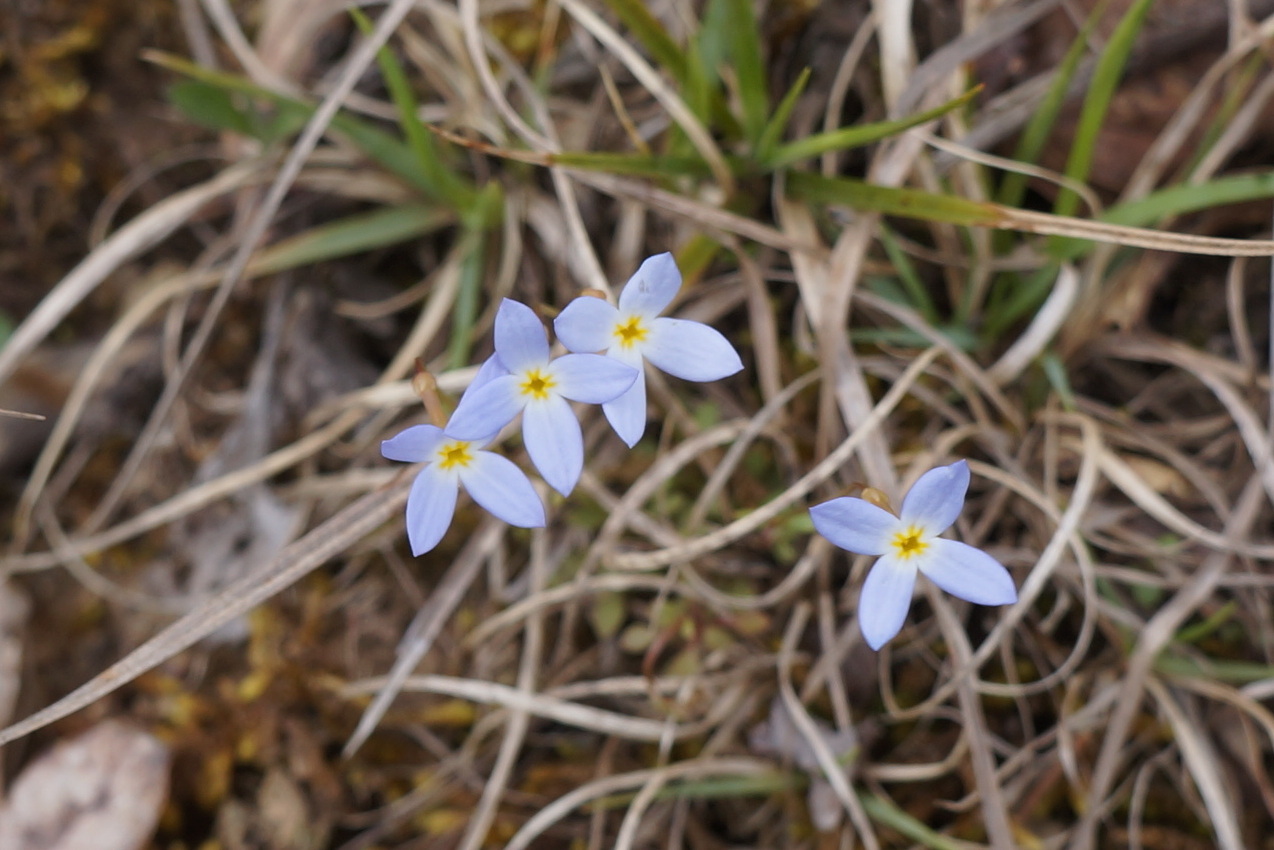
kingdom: Plantae
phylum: Tracheophyta
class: Magnoliopsida
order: Gentianales
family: Rubiaceae
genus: Houstonia
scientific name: Houstonia caerulea
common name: Bluets
